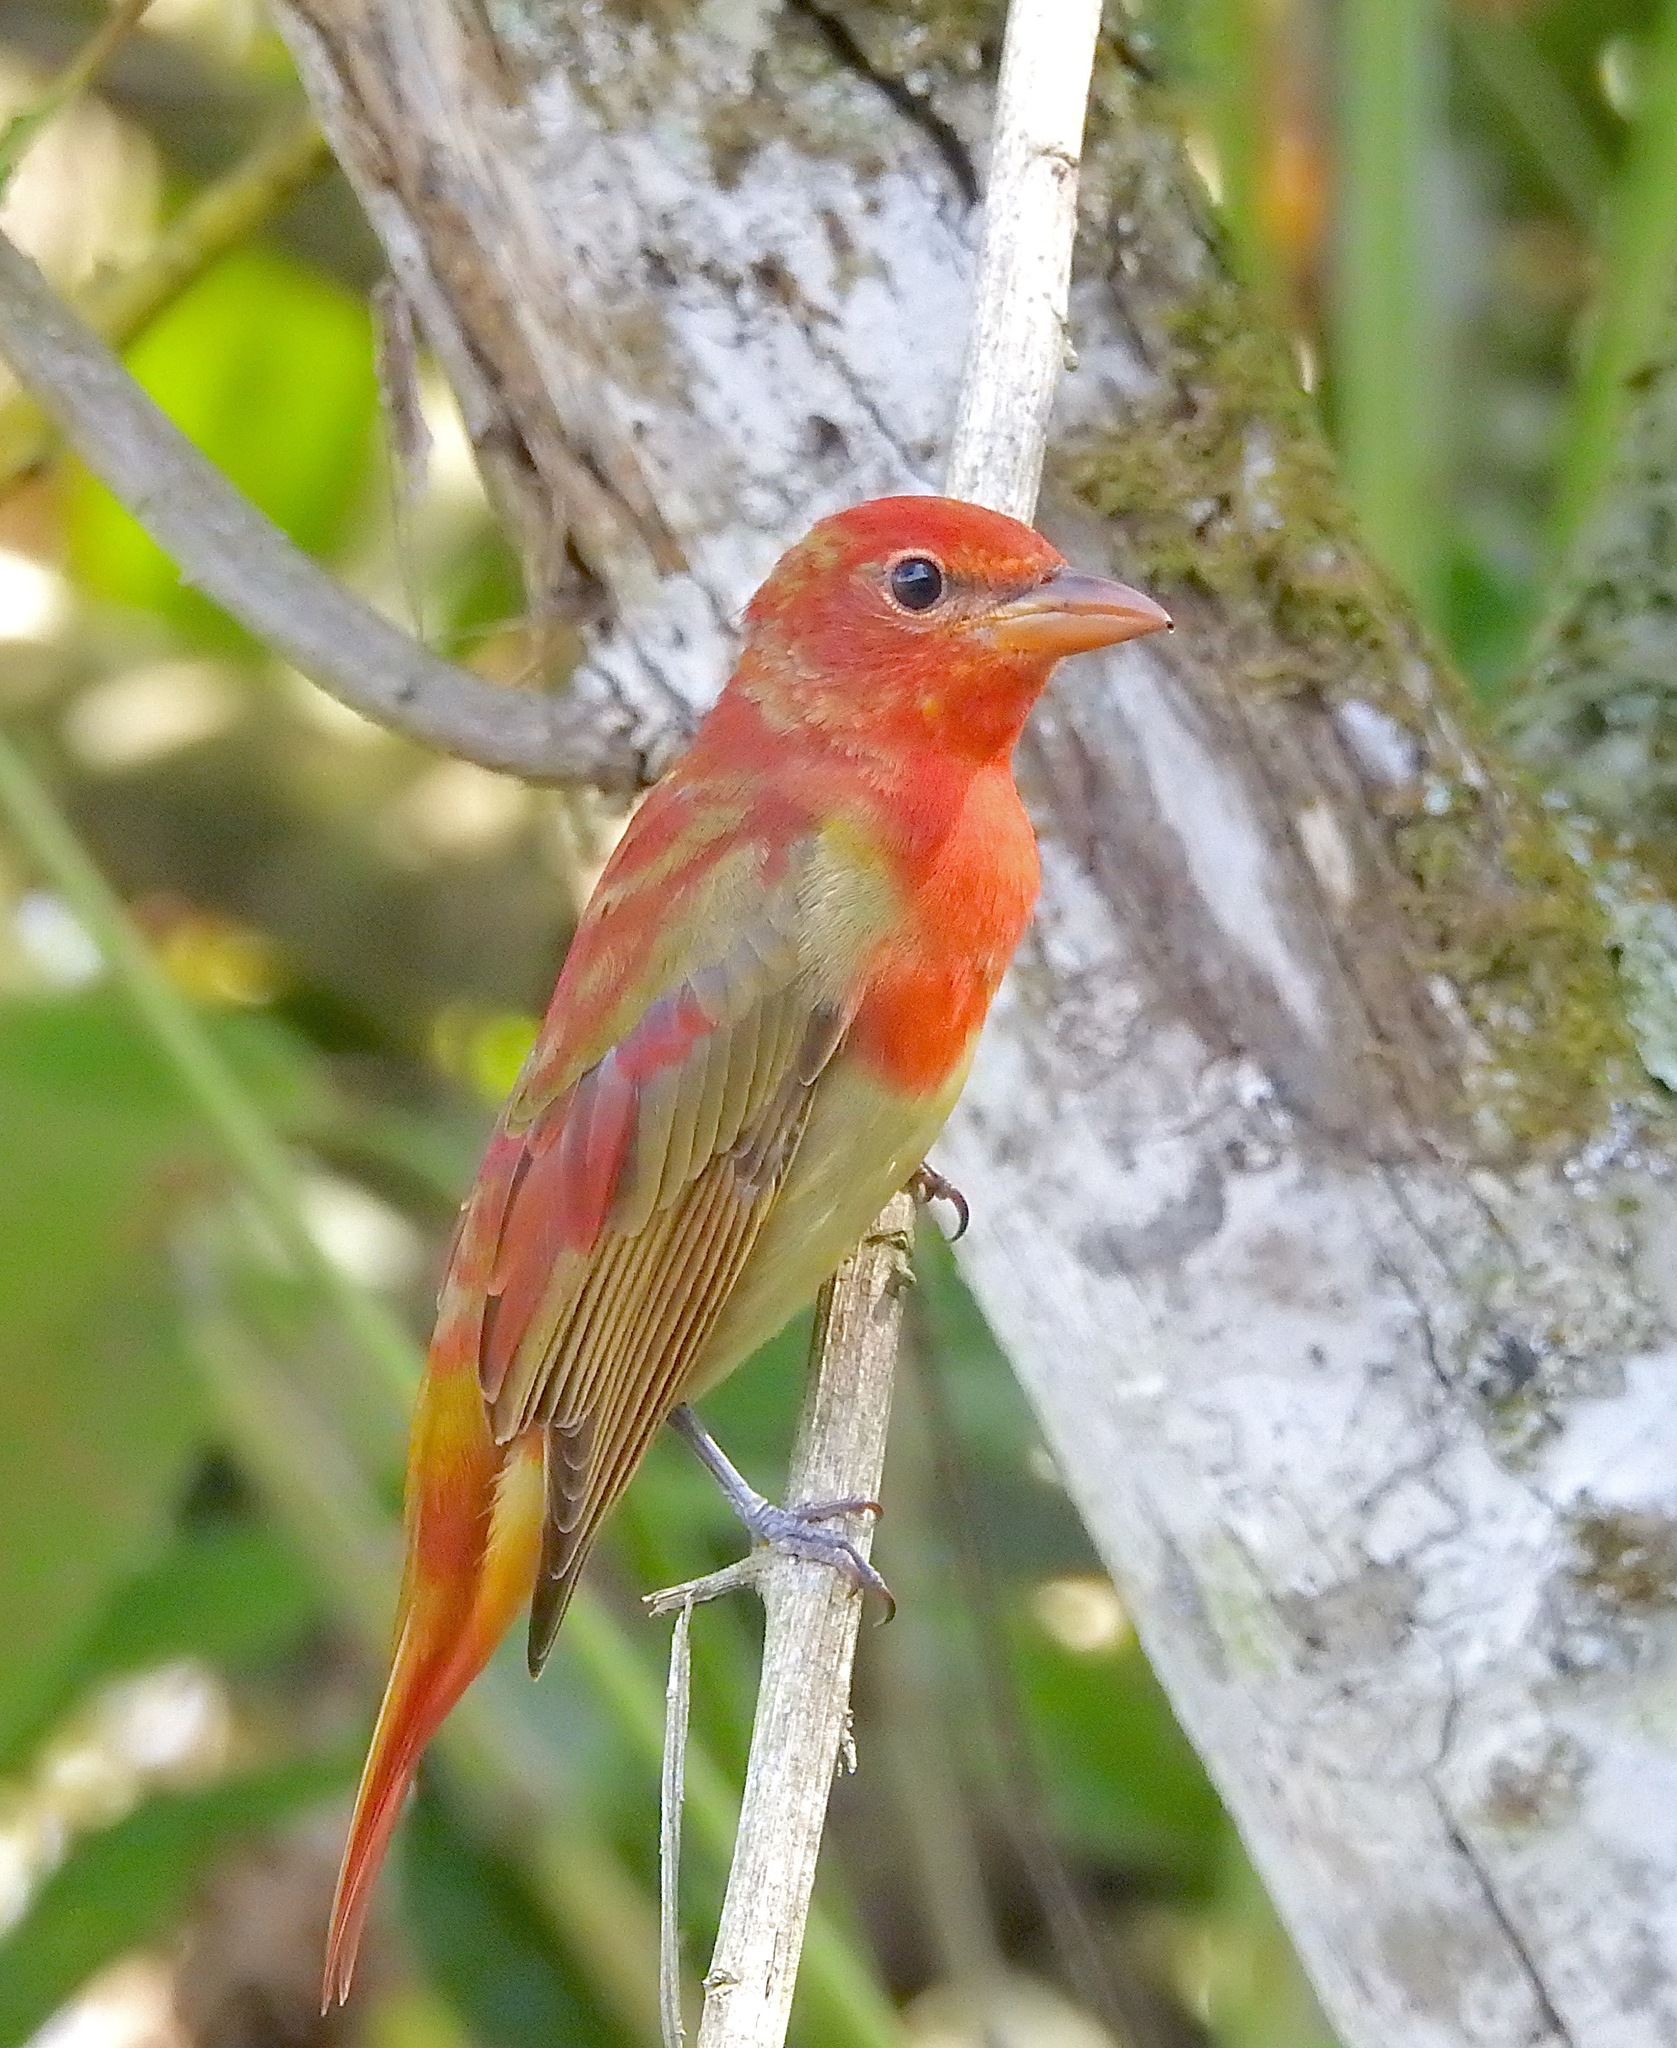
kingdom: Animalia
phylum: Chordata
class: Aves
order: Passeriformes
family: Cardinalidae
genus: Piranga
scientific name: Piranga rubra
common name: Summer tanager
